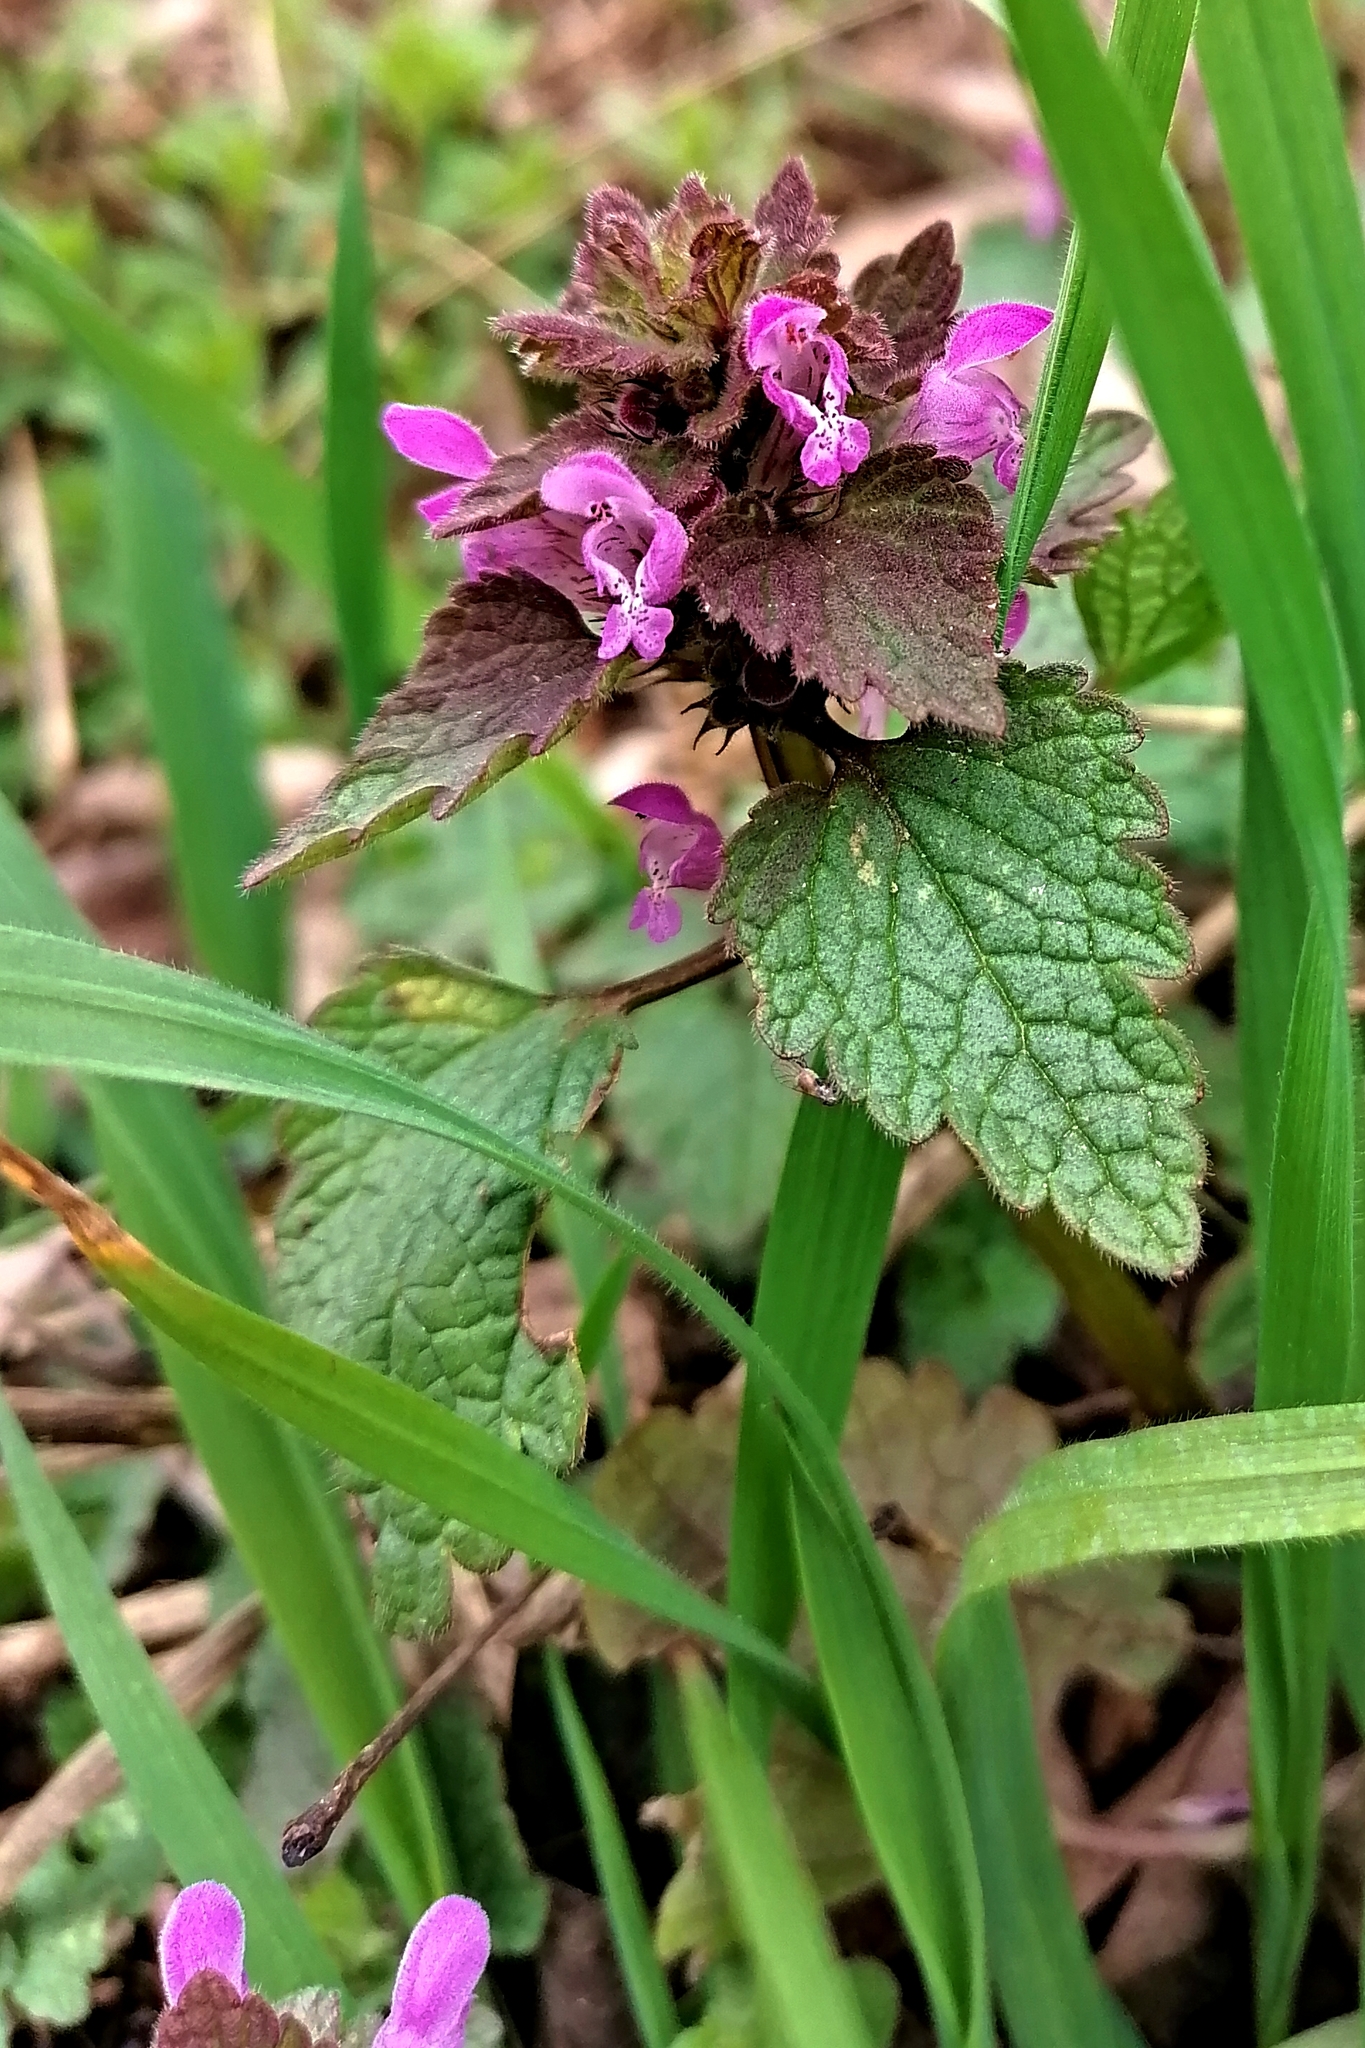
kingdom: Plantae
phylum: Tracheophyta
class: Magnoliopsida
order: Lamiales
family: Lamiaceae
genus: Lamium
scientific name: Lamium purpureum
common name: Red dead-nettle
